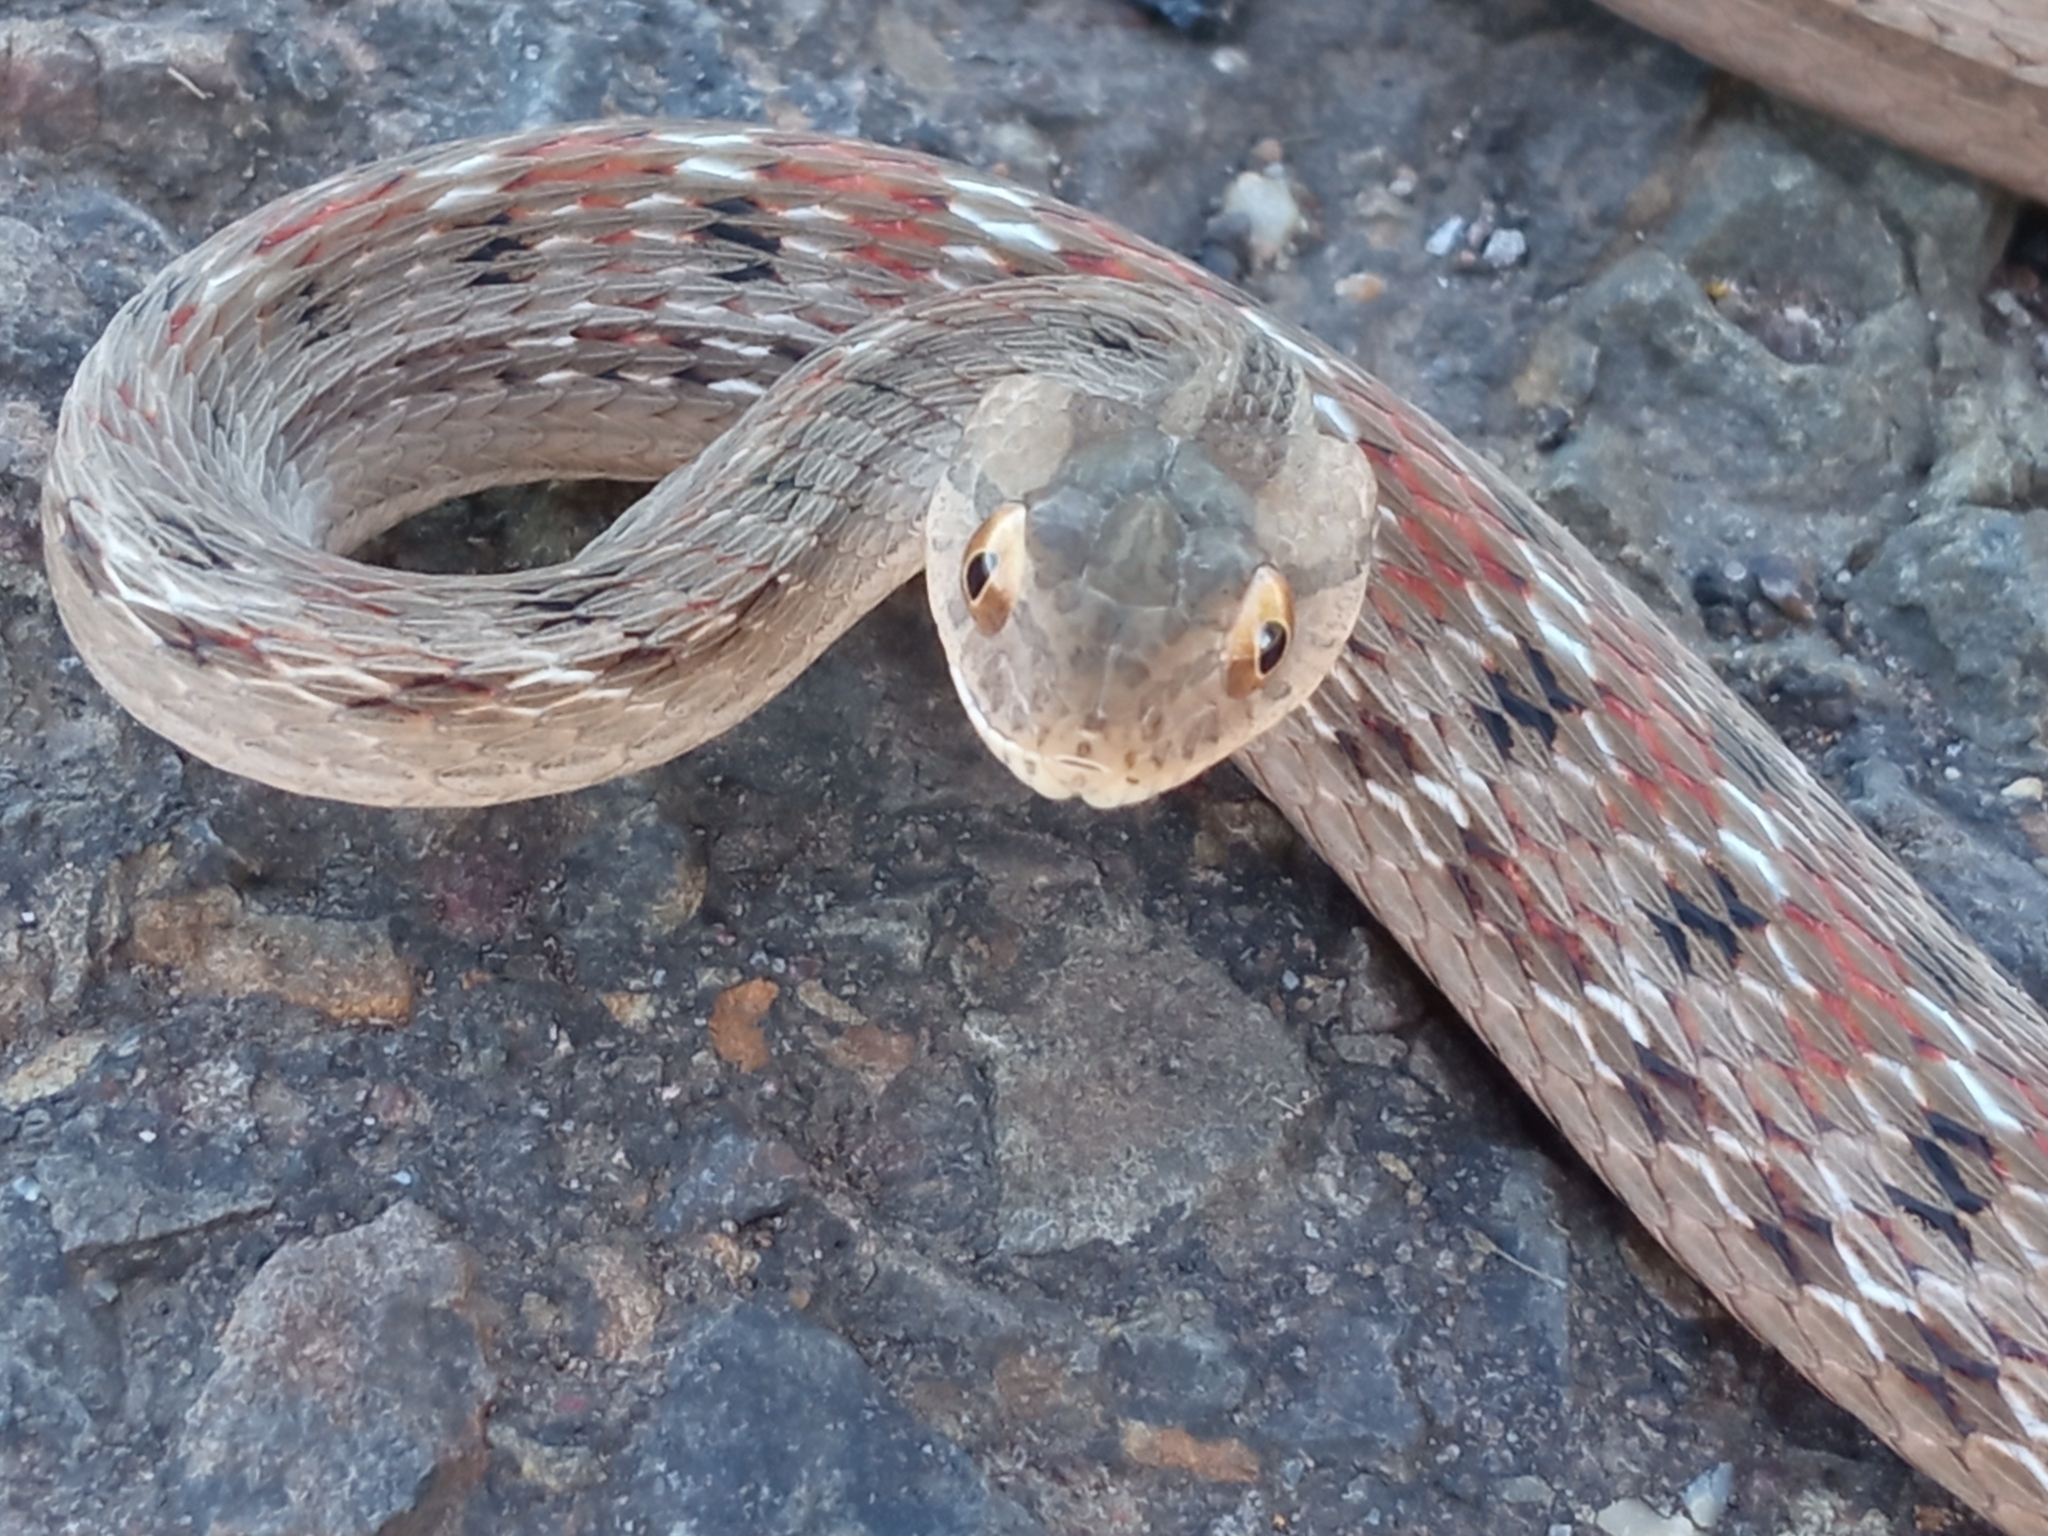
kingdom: Animalia
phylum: Chordata
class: Squamata
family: Colubridae
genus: Dryophylax
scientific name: Dryophylax
